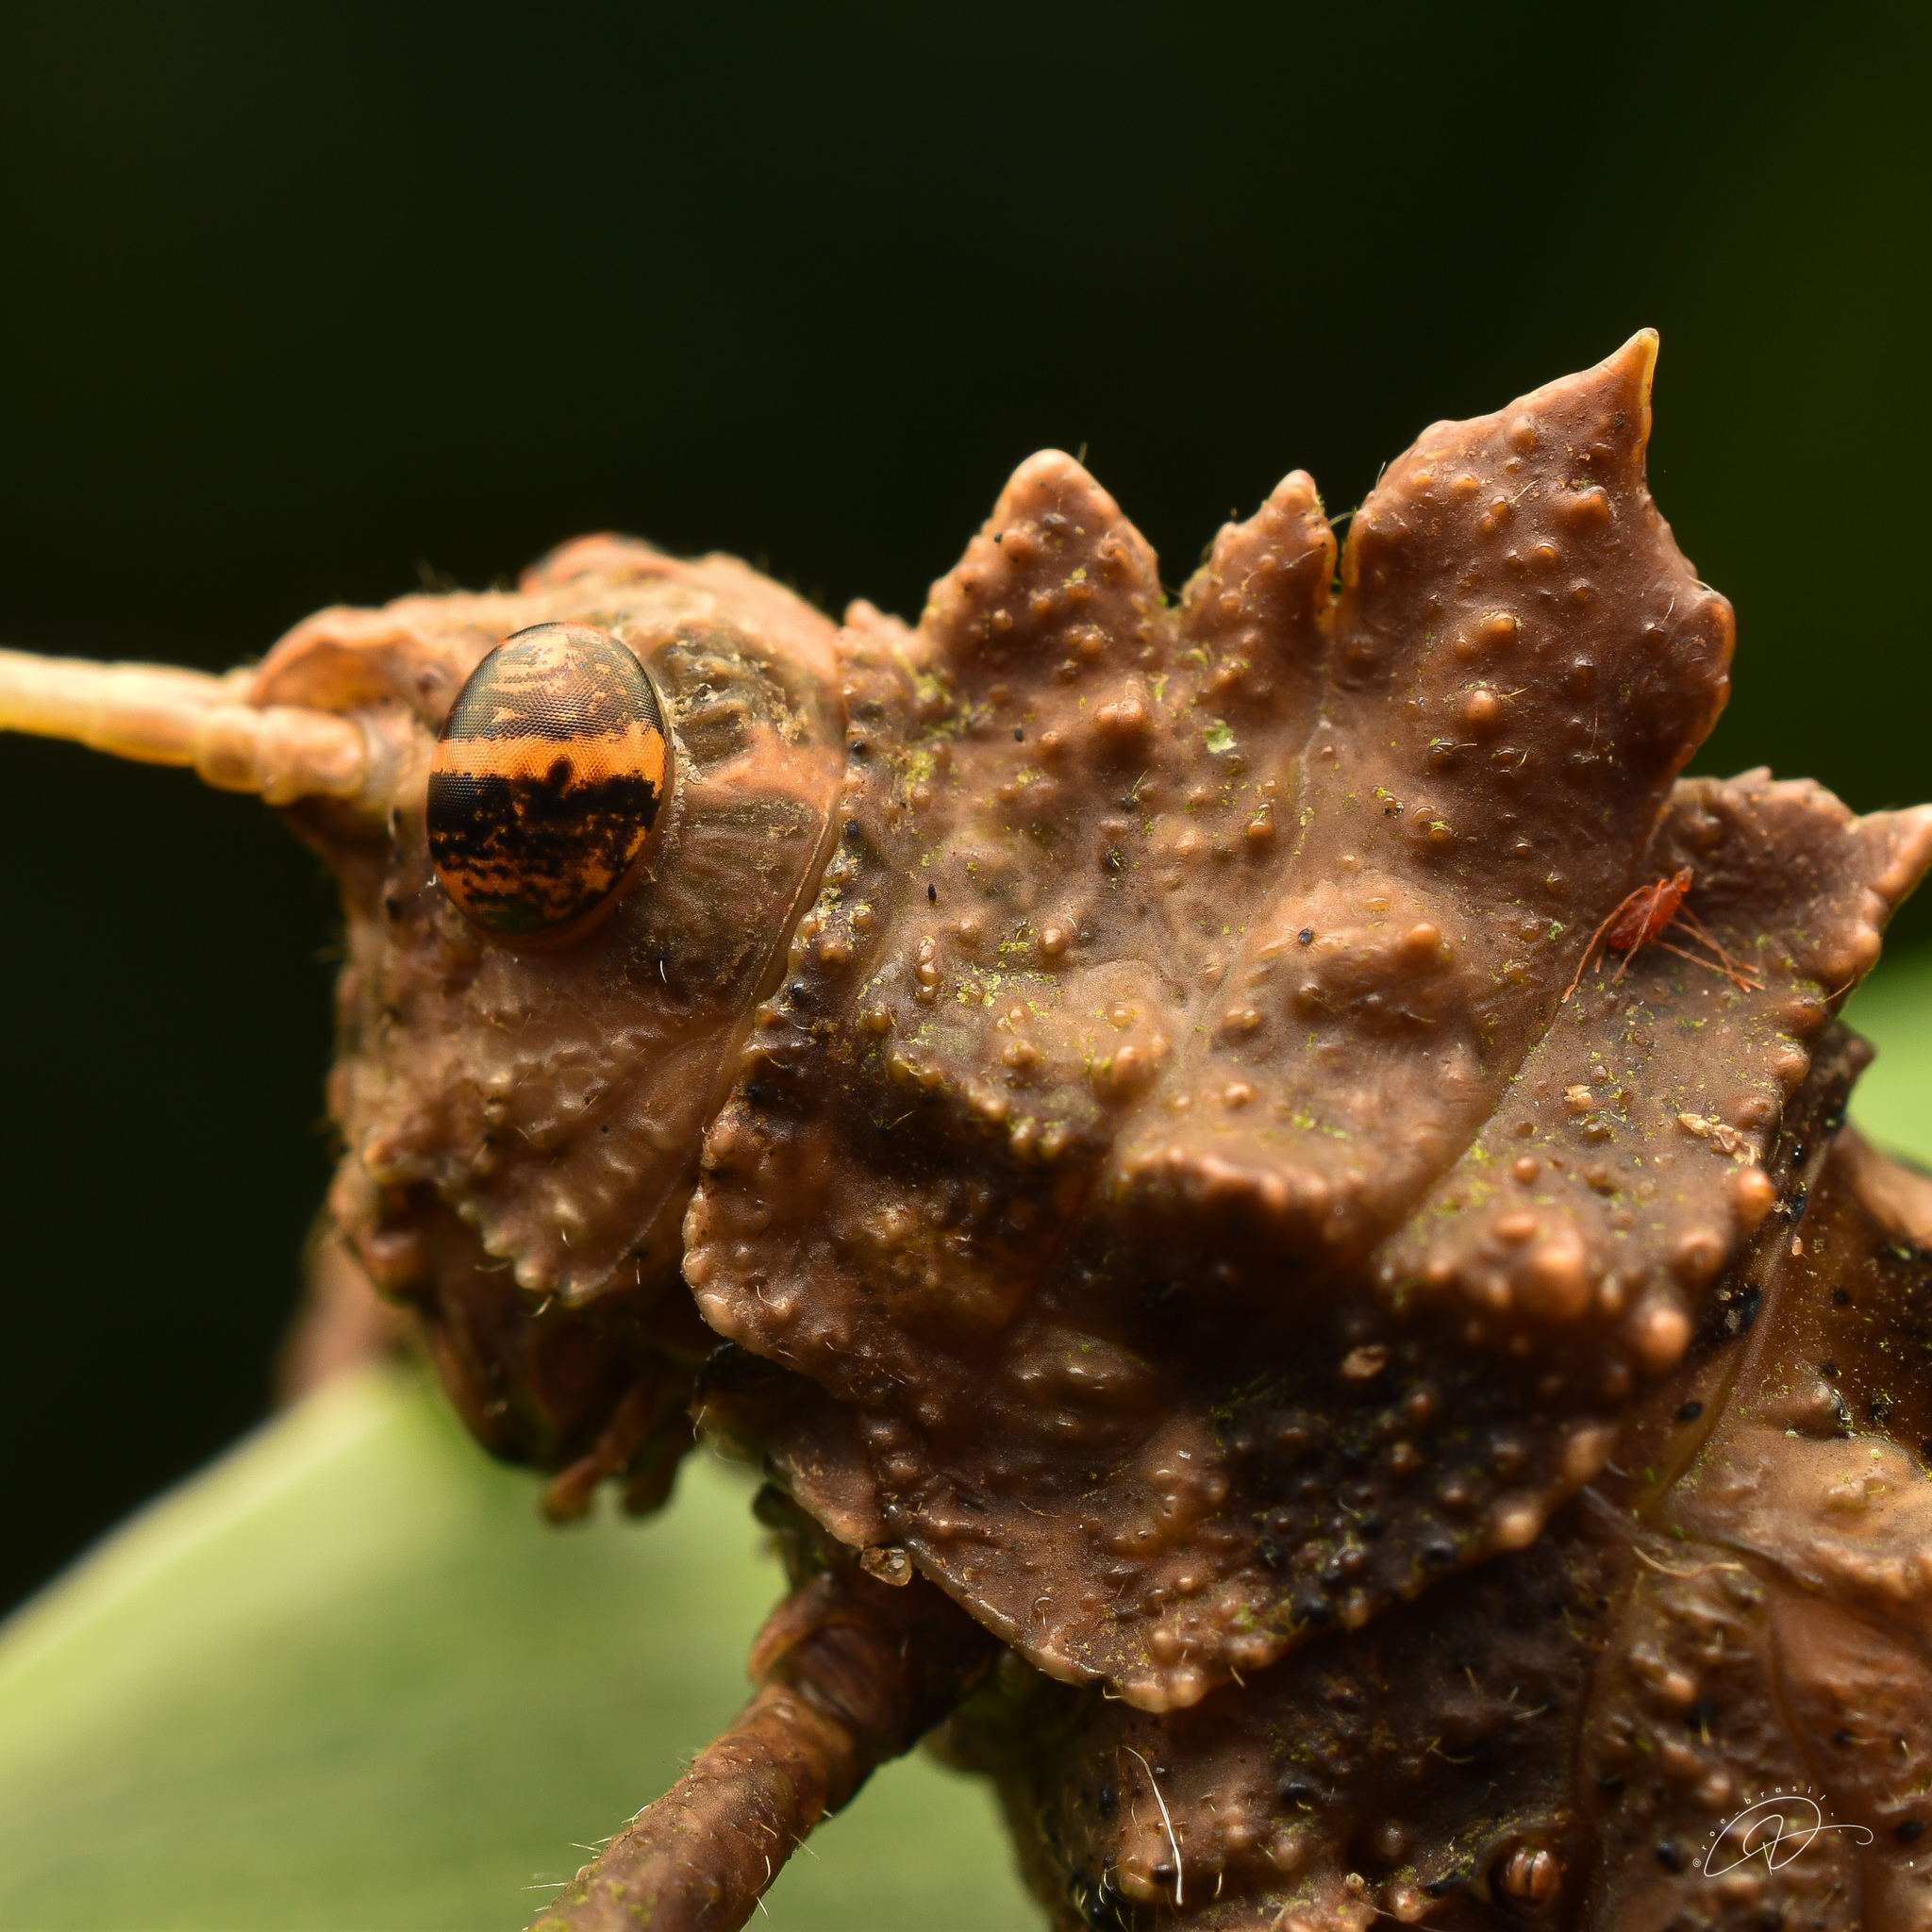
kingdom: Animalia
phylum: Arthropoda
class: Insecta
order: Orthoptera
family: Acrididae
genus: Pycnosarcus
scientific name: Pycnosarcus atavus
